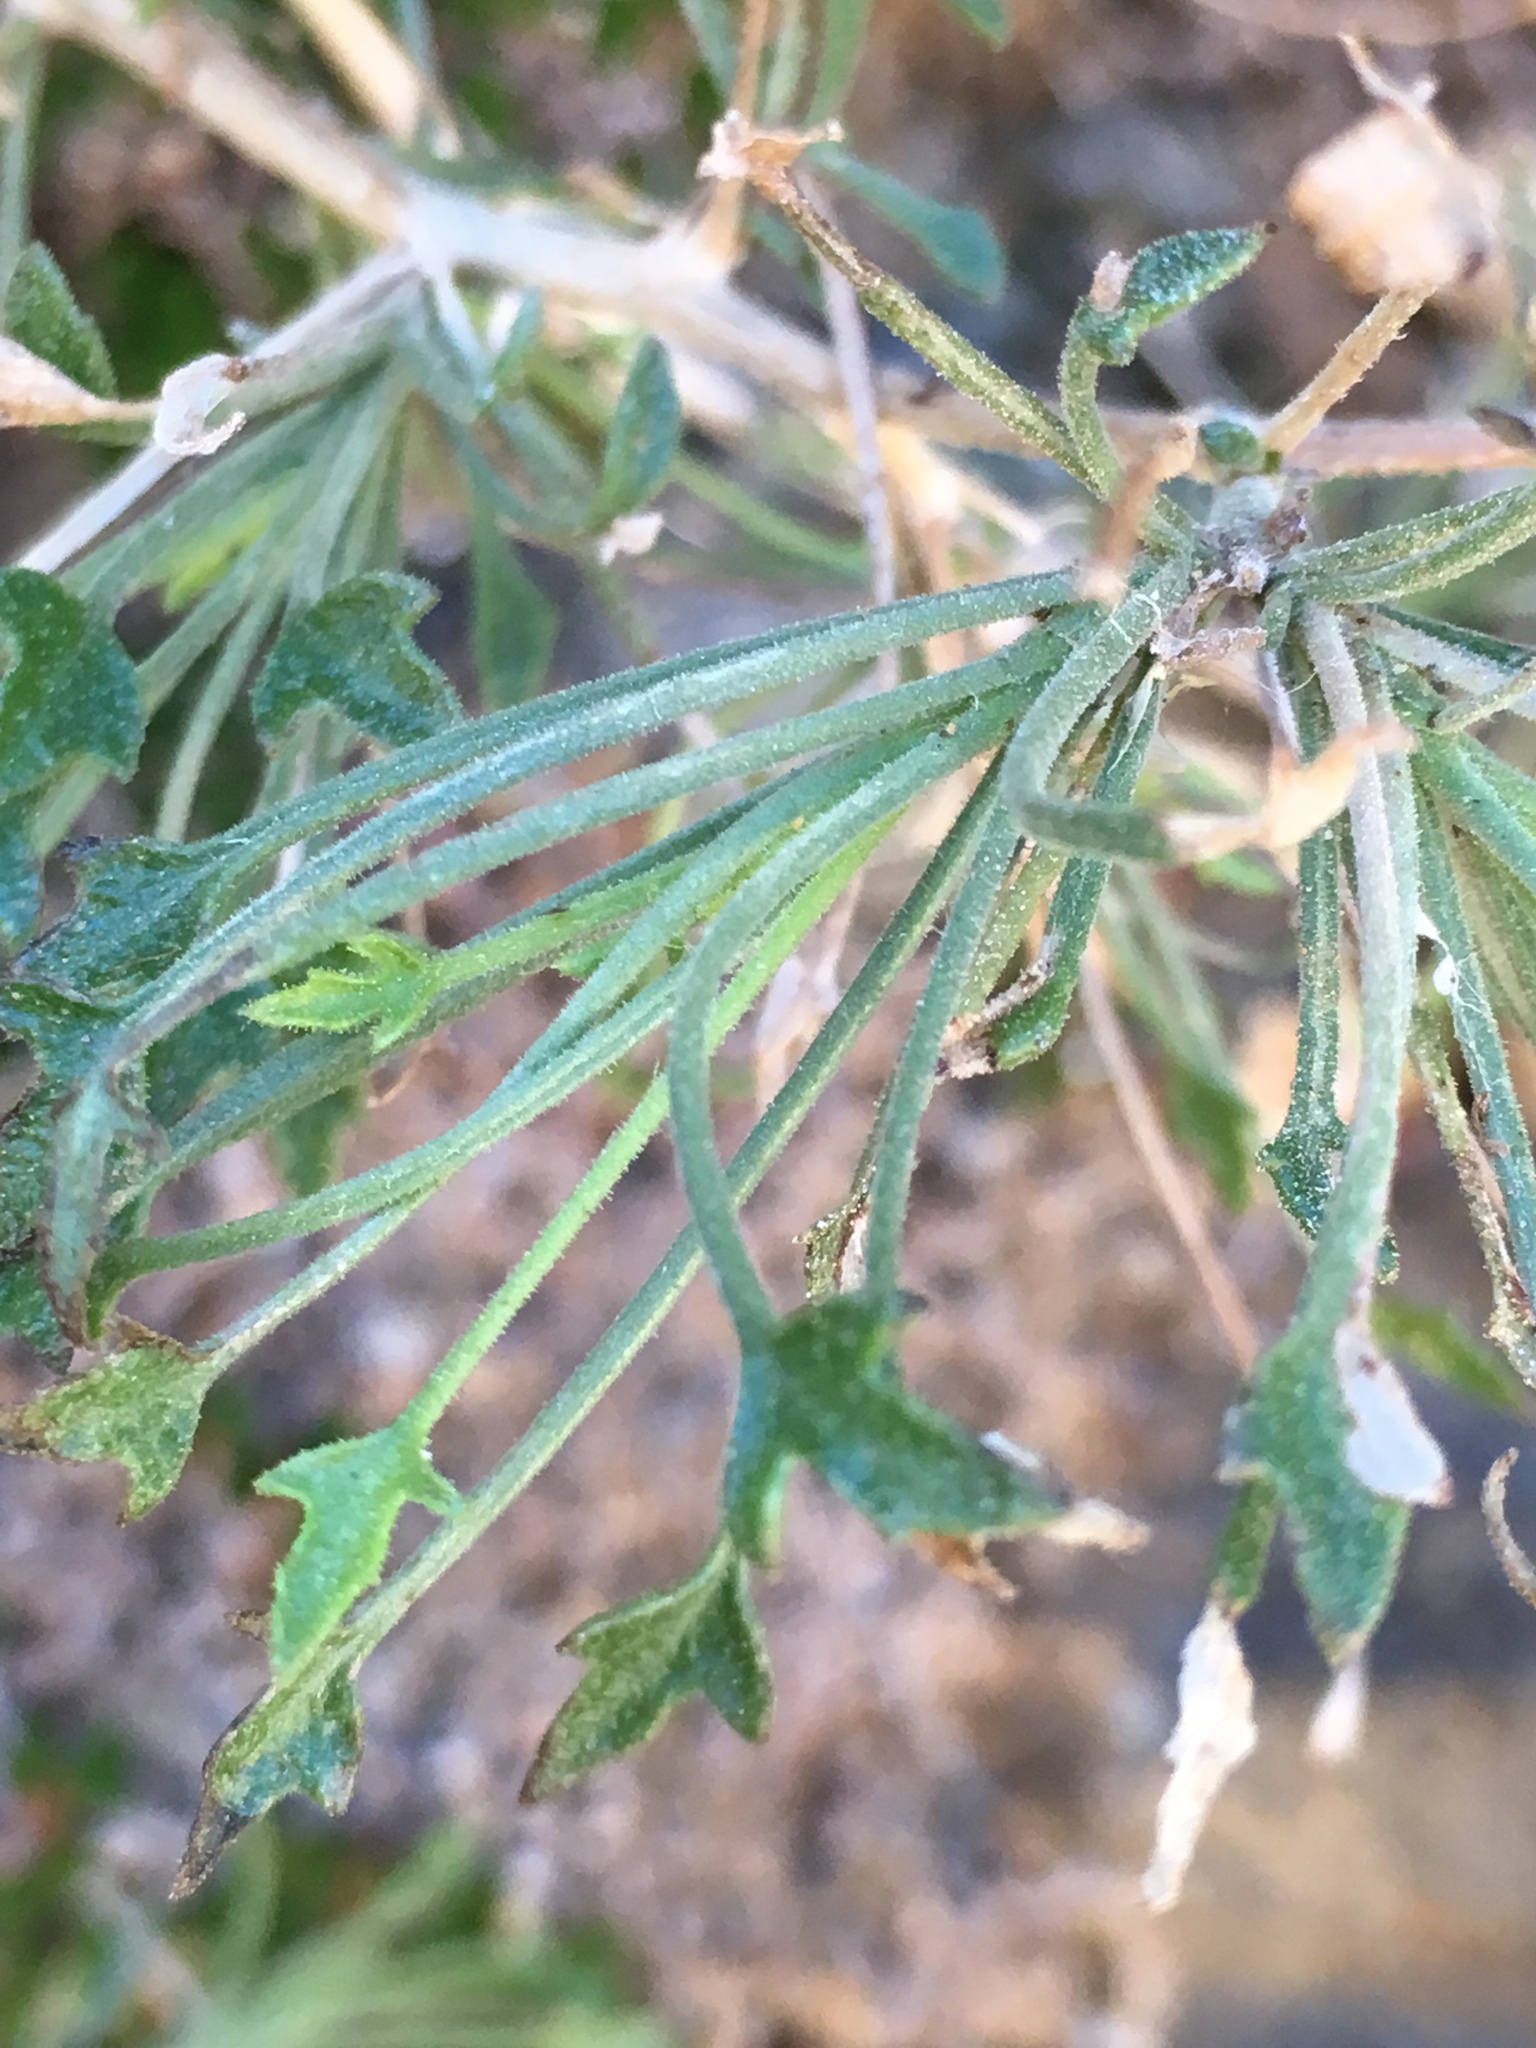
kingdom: Plantae
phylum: Tracheophyta
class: Magnoliopsida
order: Asterales
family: Asteraceae
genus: Pleurocoronis
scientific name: Pleurocoronis pluriseta
